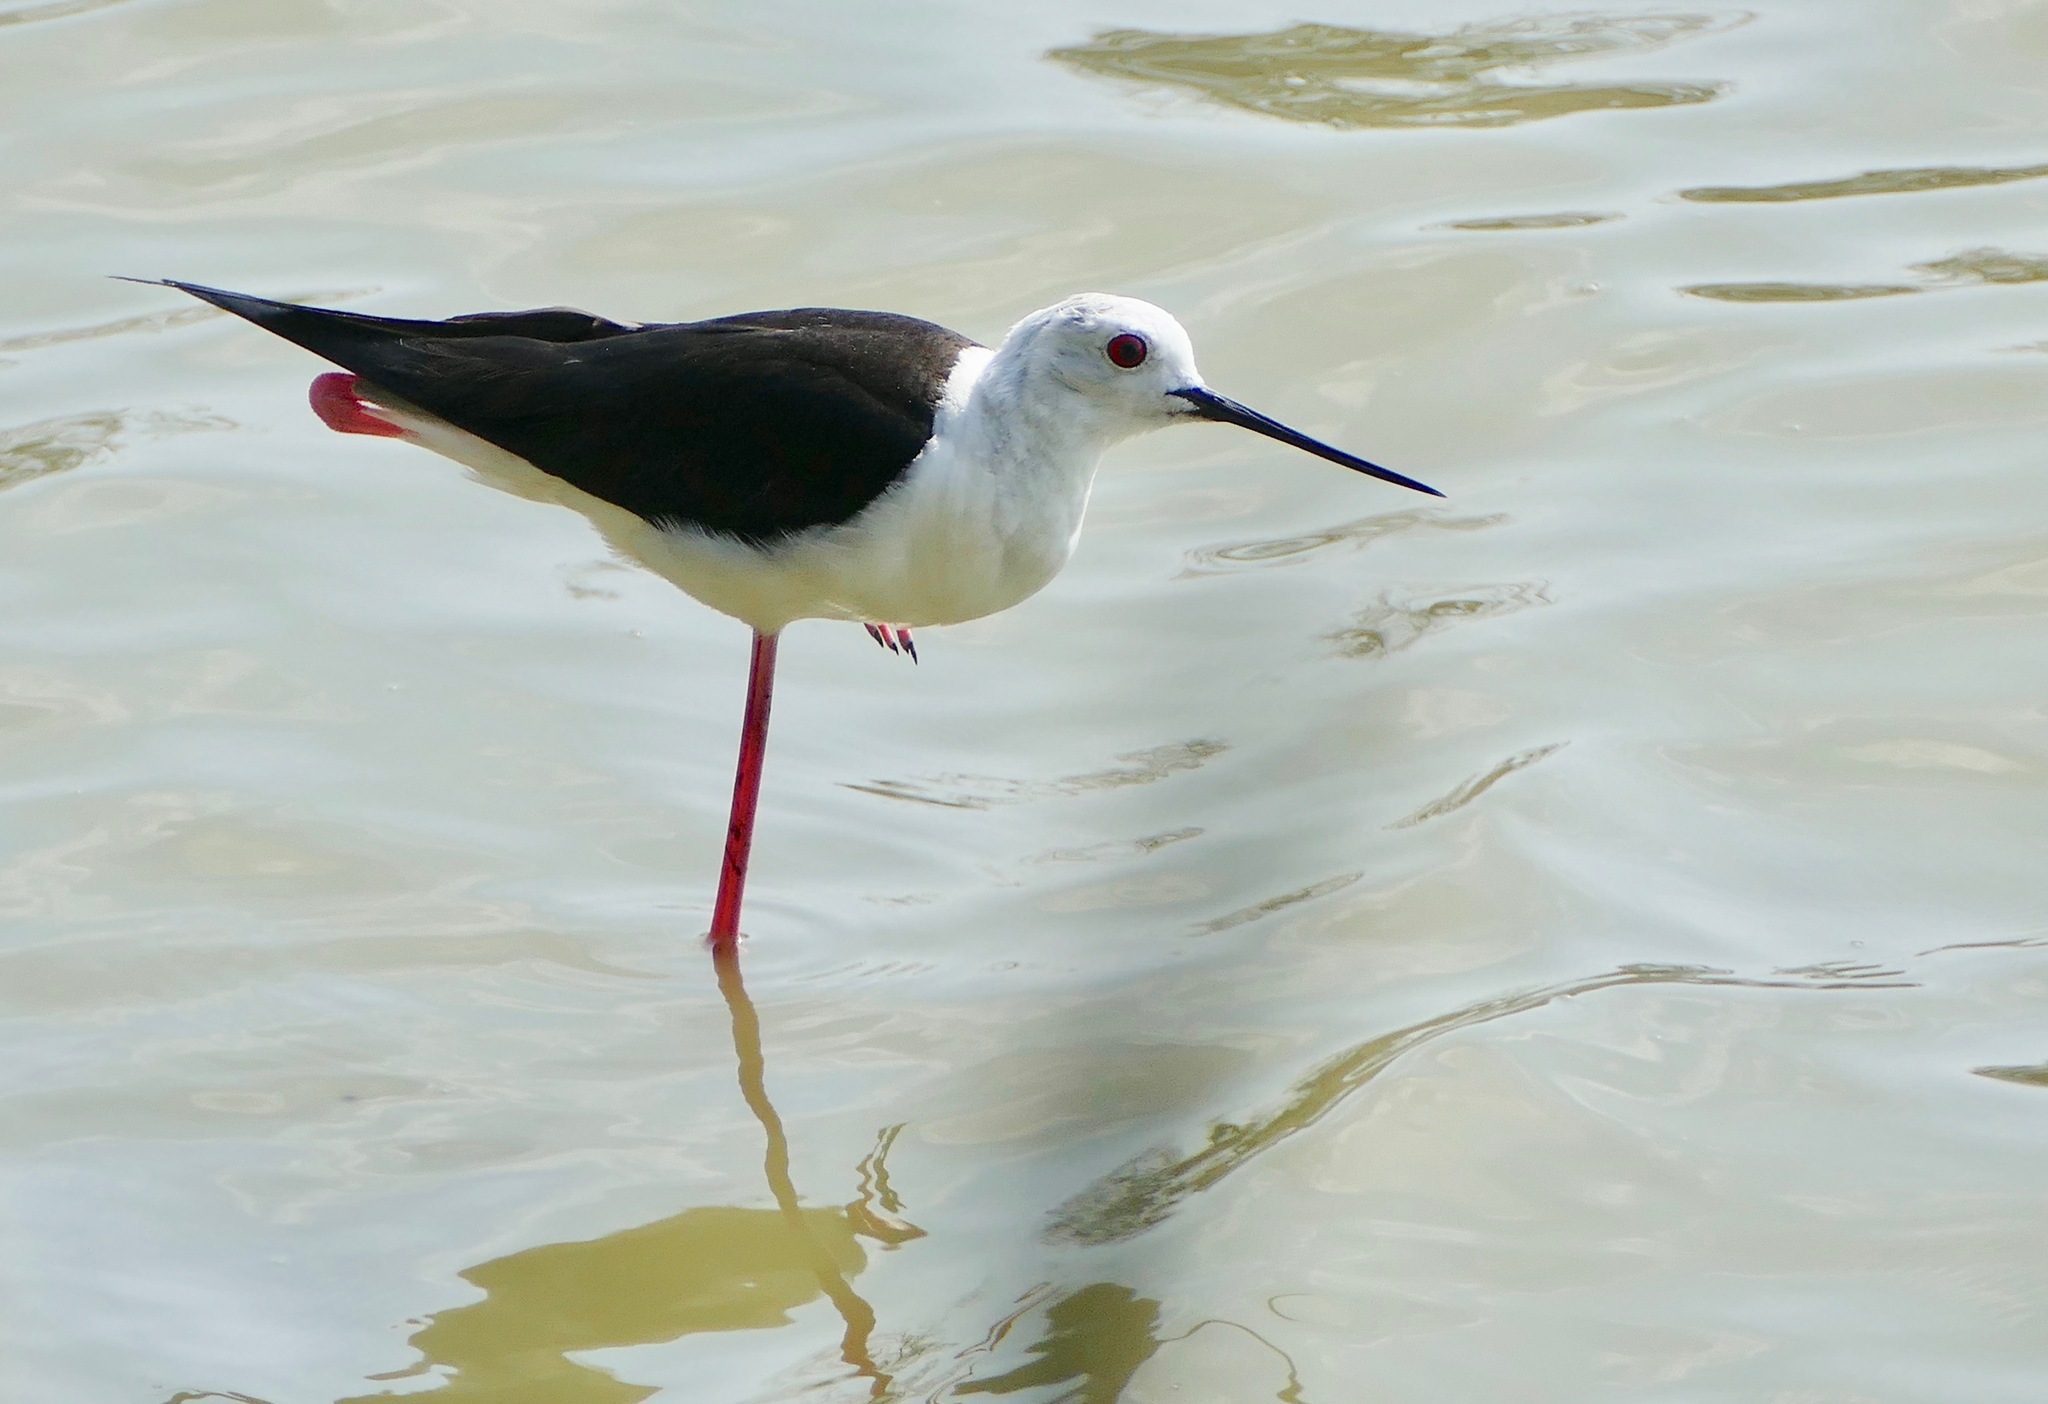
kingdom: Animalia
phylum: Chordata
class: Aves
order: Charadriiformes
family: Recurvirostridae
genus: Himantopus
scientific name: Himantopus himantopus
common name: Black-winged stilt
